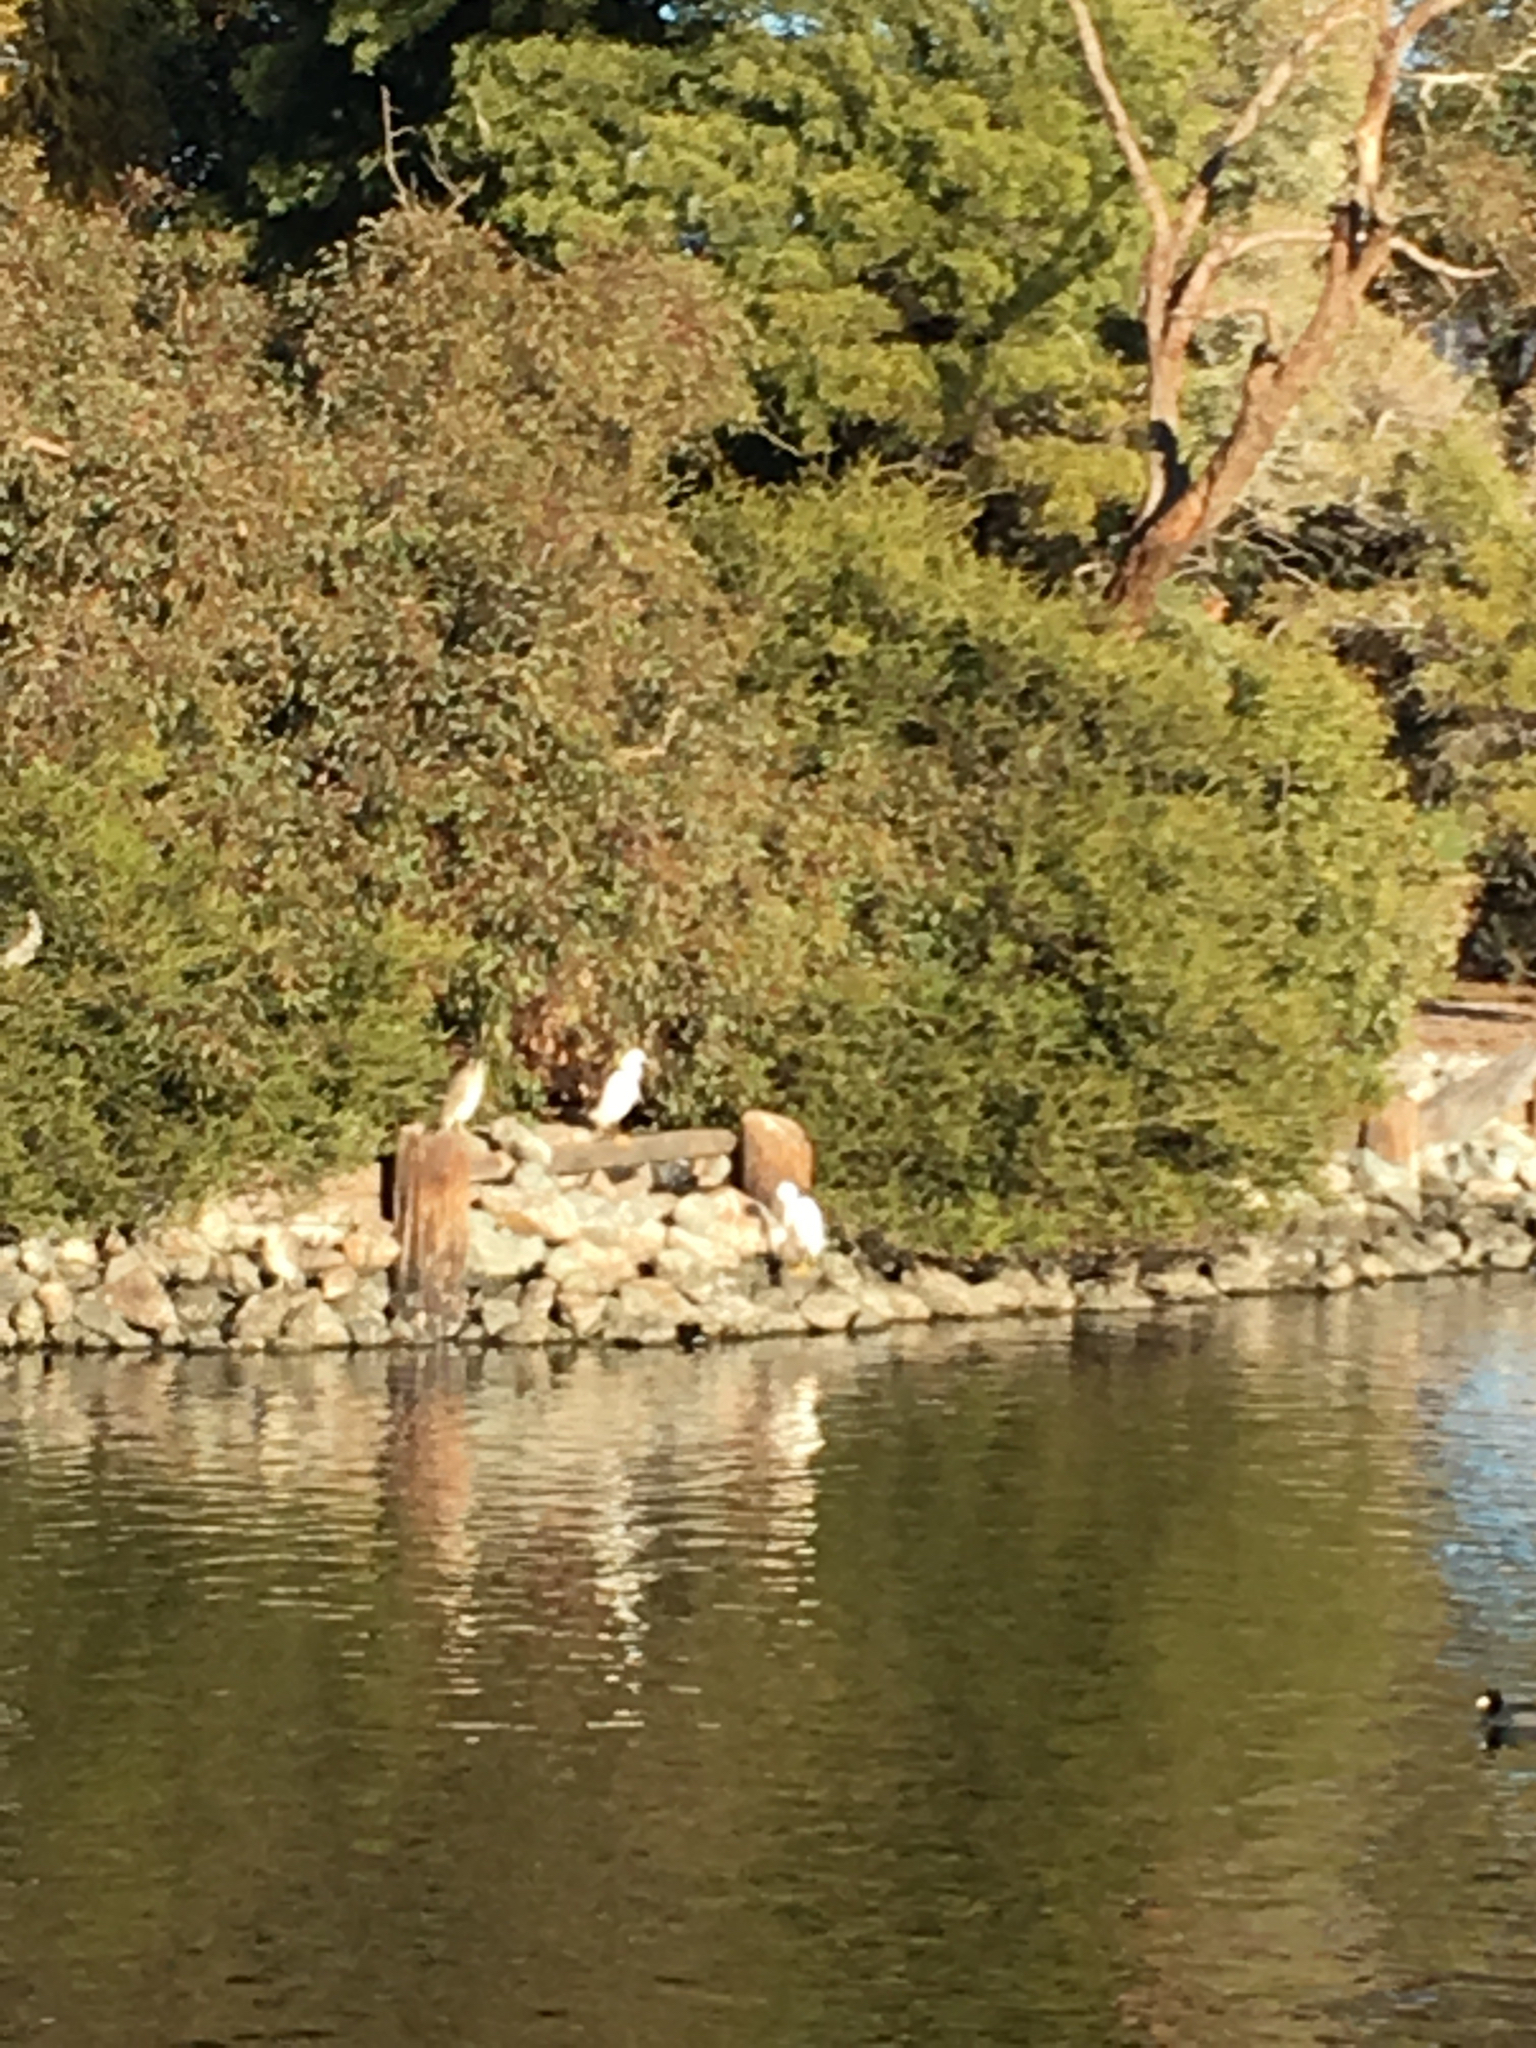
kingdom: Animalia
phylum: Chordata
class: Aves
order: Pelecaniformes
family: Ardeidae
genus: Egretta
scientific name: Egretta thula
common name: Snowy egret
